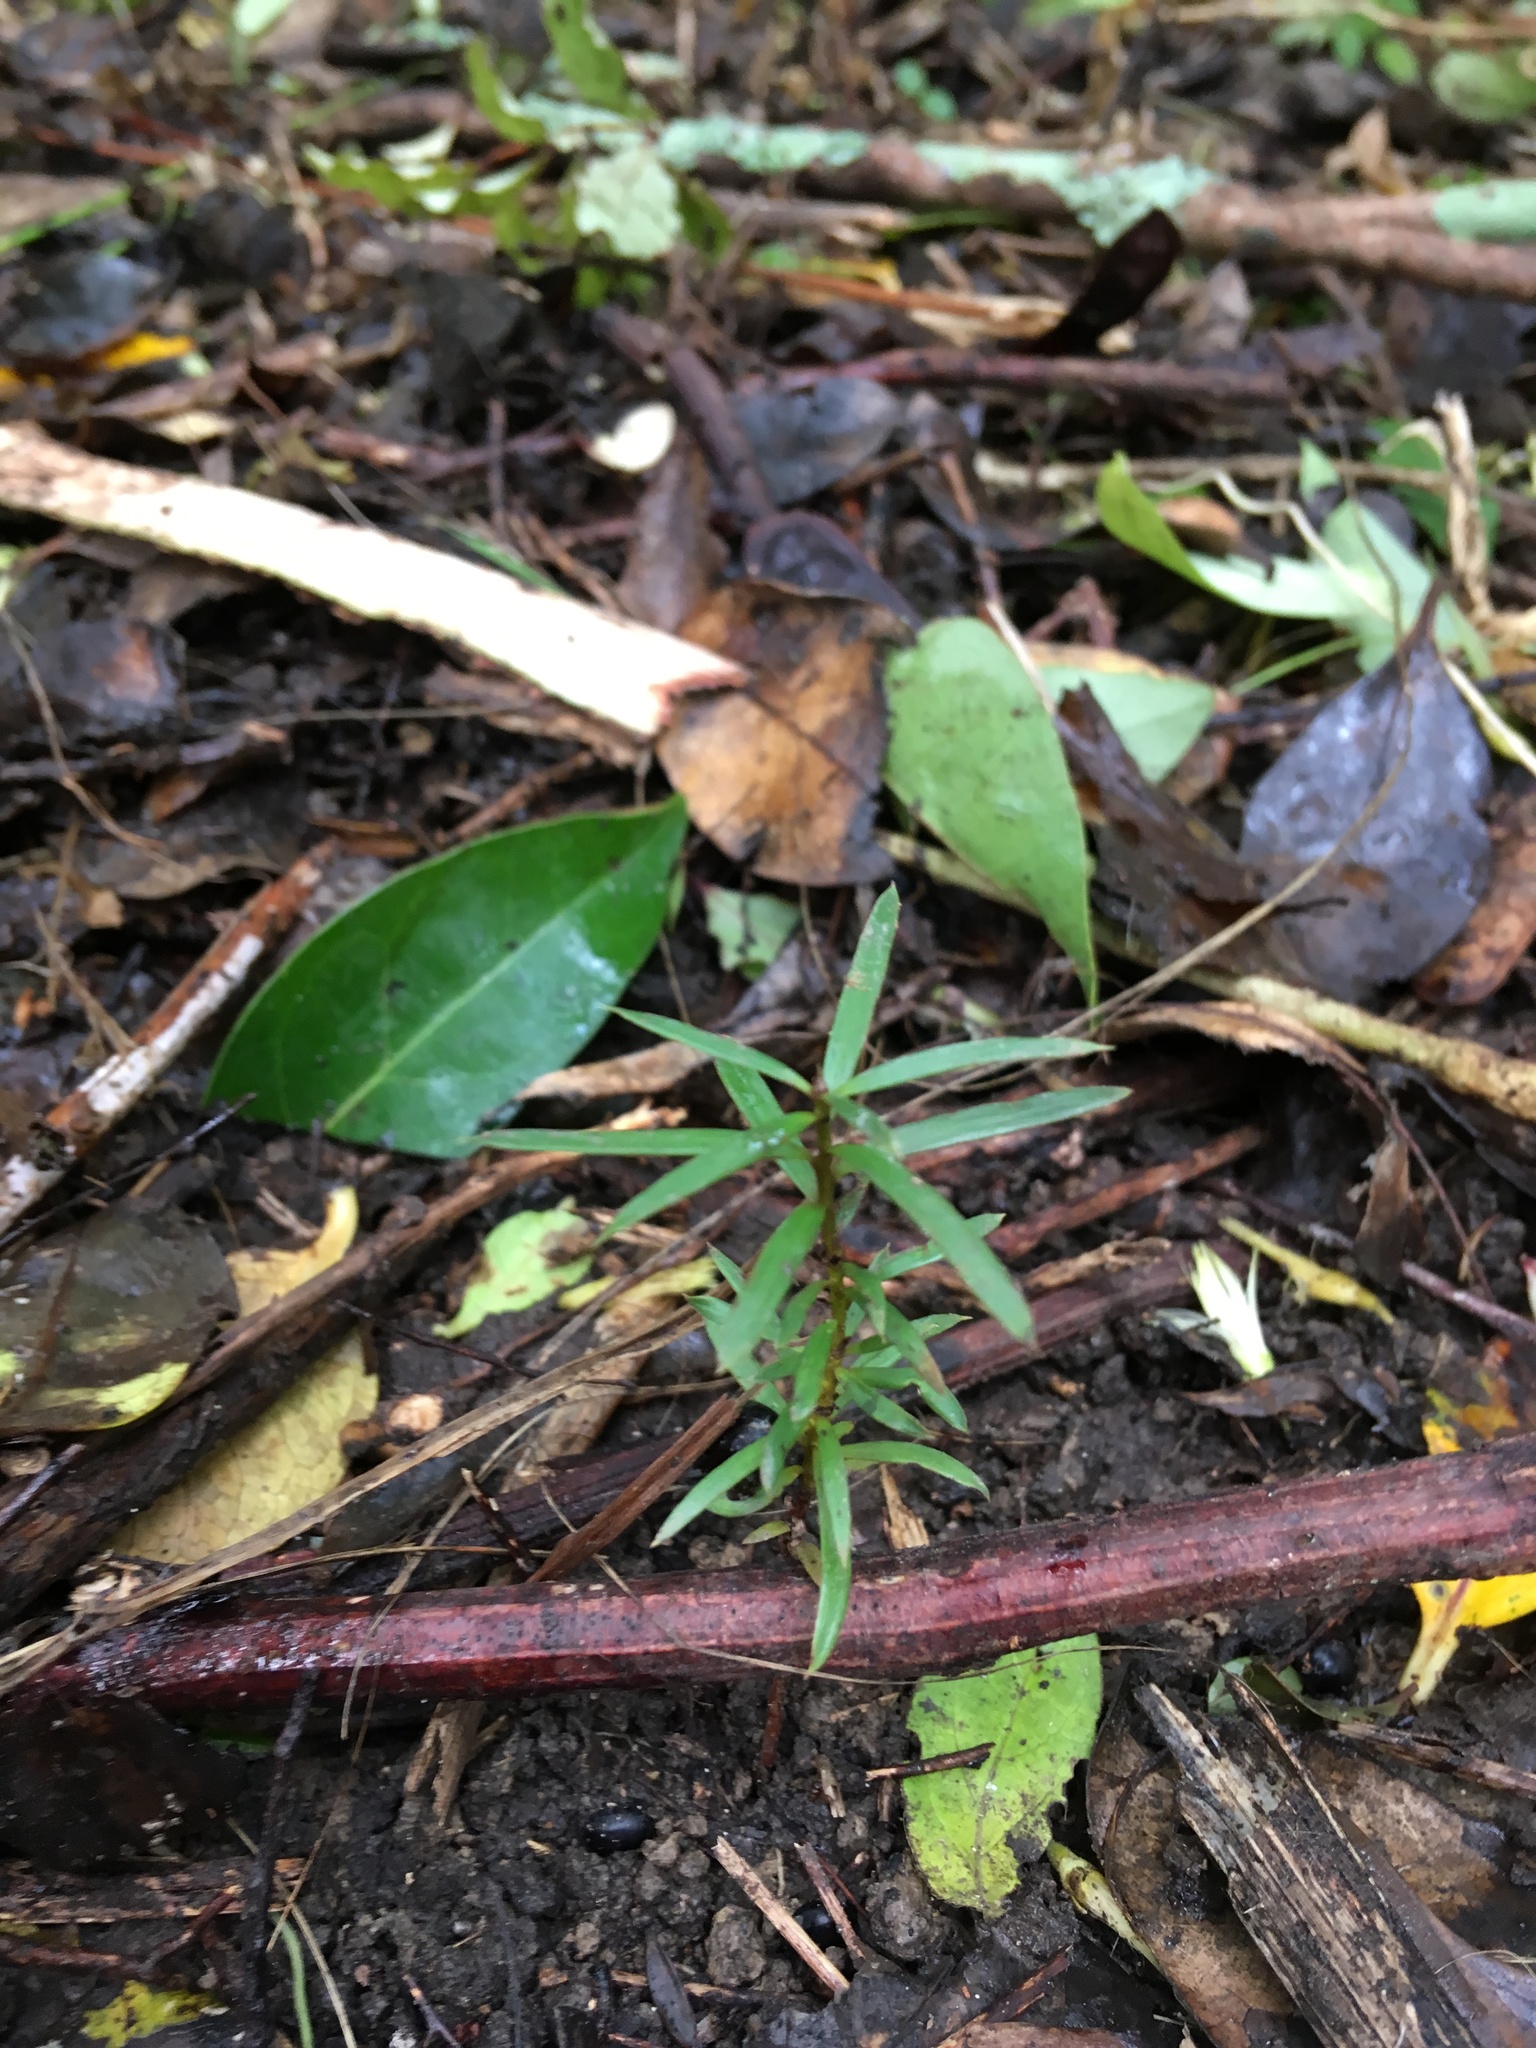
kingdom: Plantae
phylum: Tracheophyta
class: Pinopsida
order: Pinales
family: Podocarpaceae
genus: Podocarpus
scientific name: Podocarpus totara
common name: Totara
